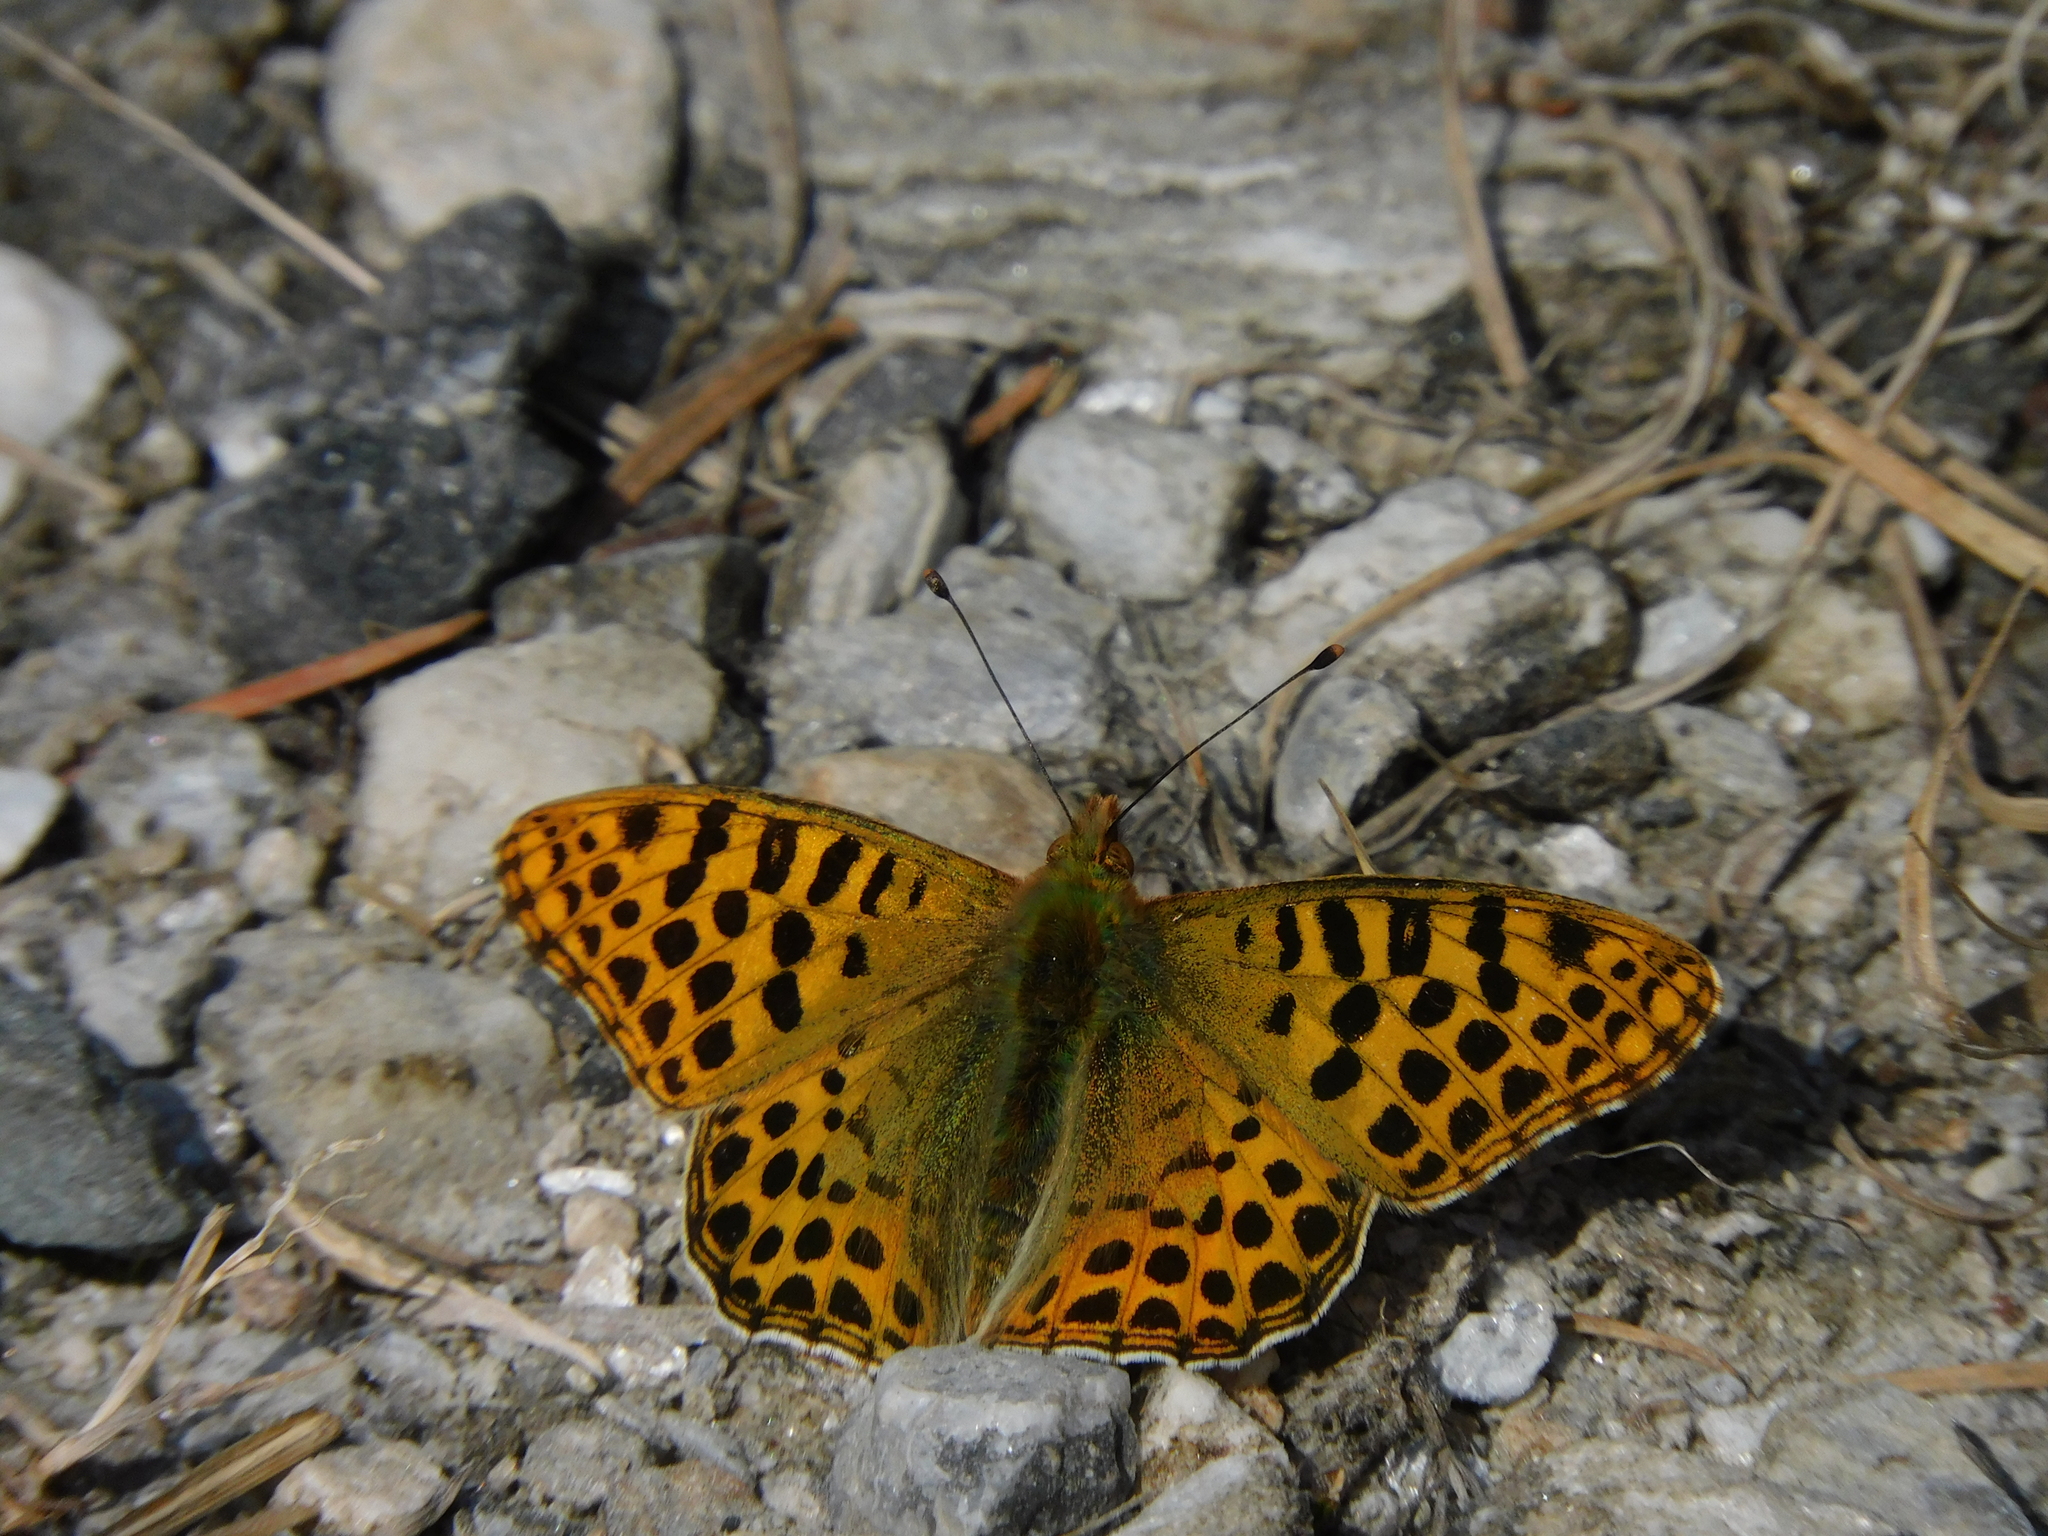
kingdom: Animalia
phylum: Arthropoda
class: Insecta
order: Lepidoptera
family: Nymphalidae
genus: Issoria
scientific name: Issoria
